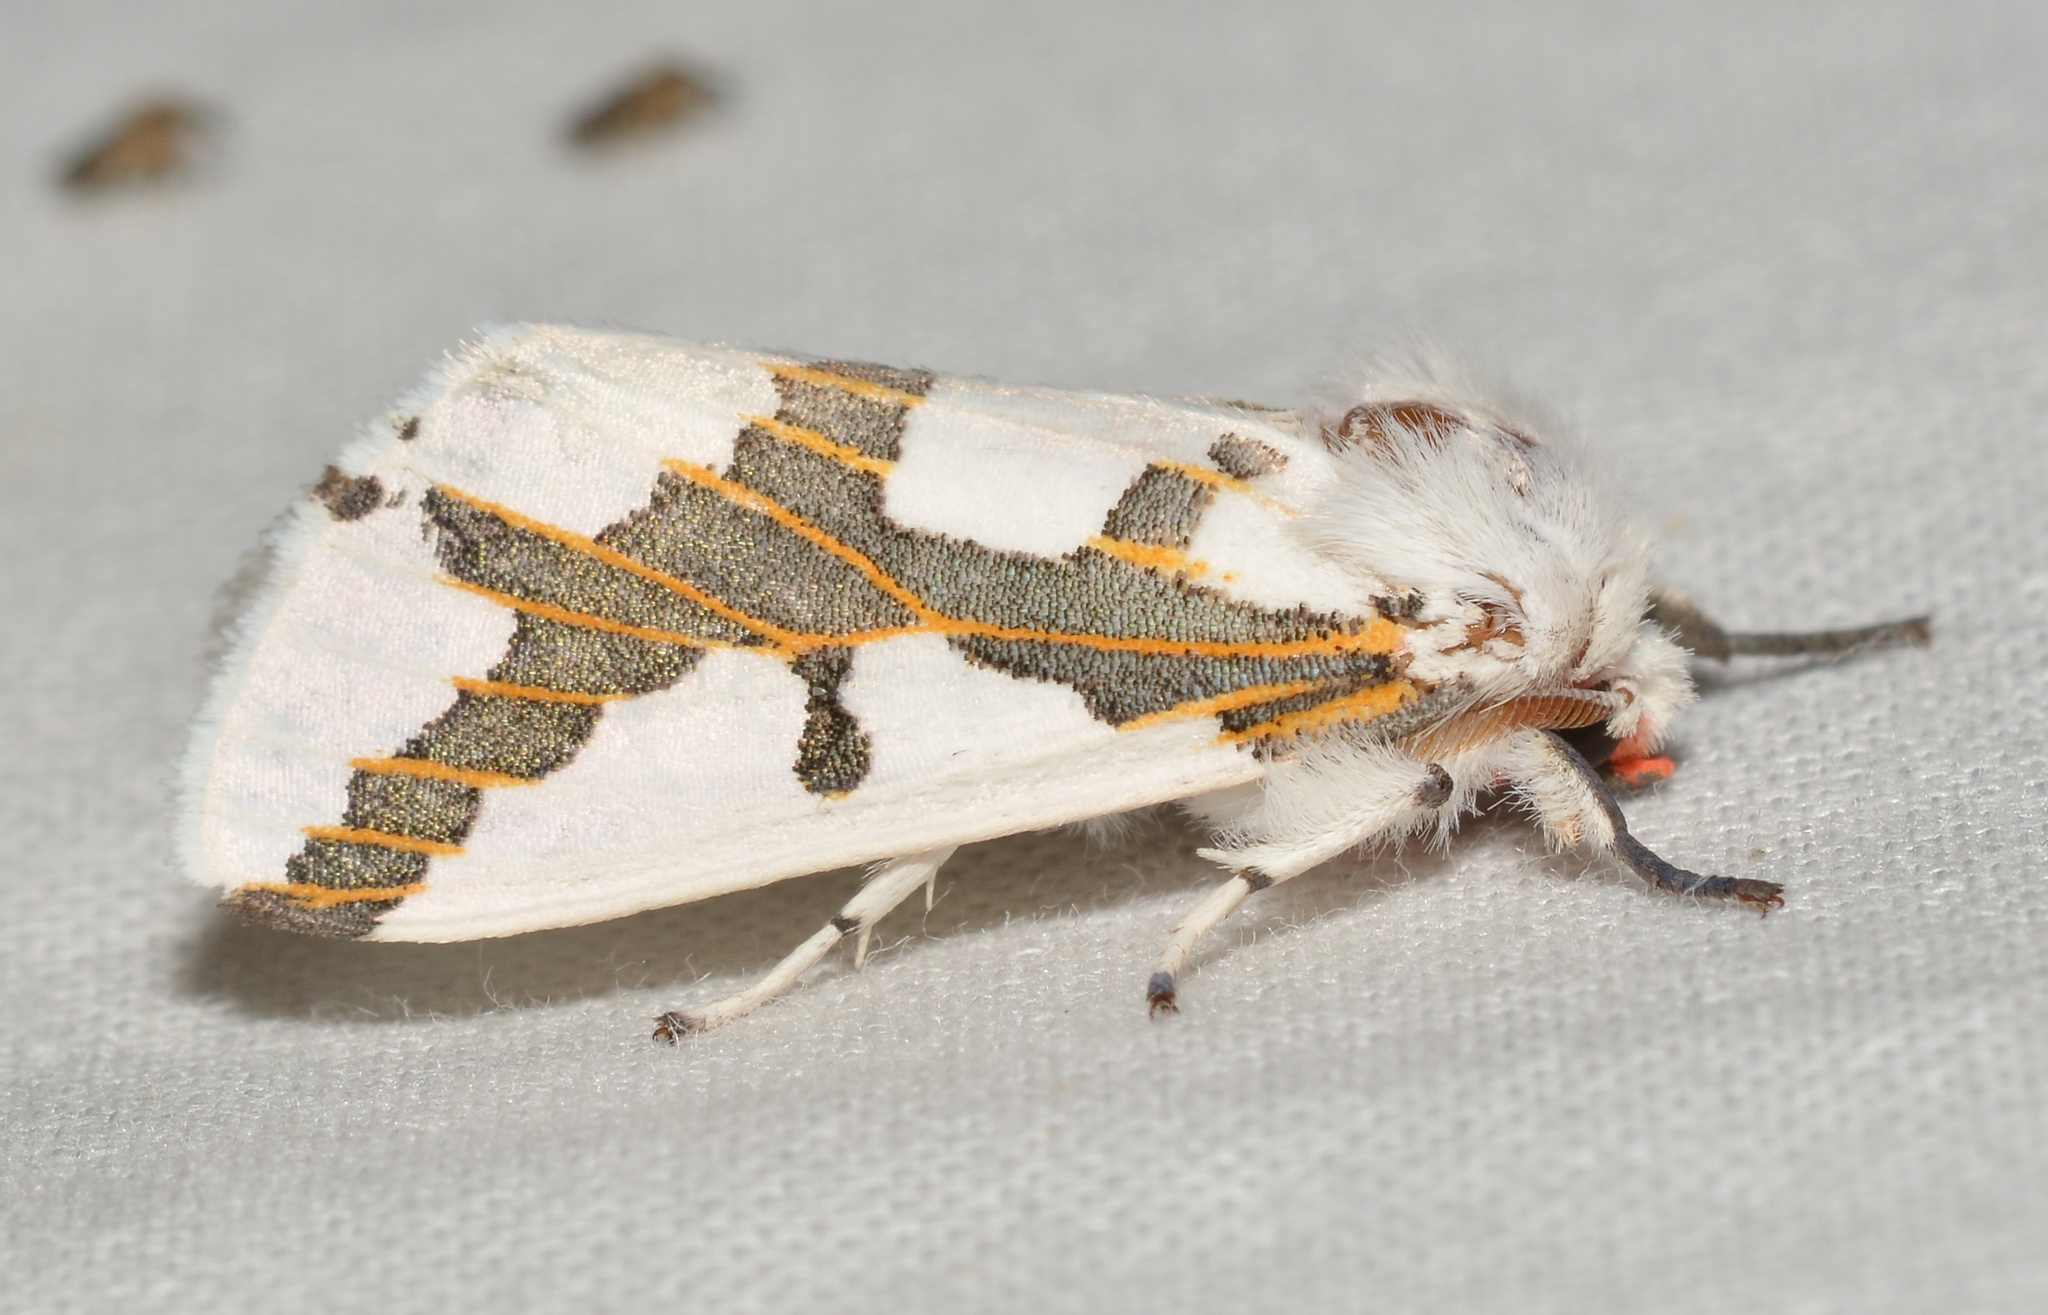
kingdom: Animalia
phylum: Arthropoda
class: Insecta
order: Lepidoptera
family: Erebidae
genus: Euerythra
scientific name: Euerythra phasma
